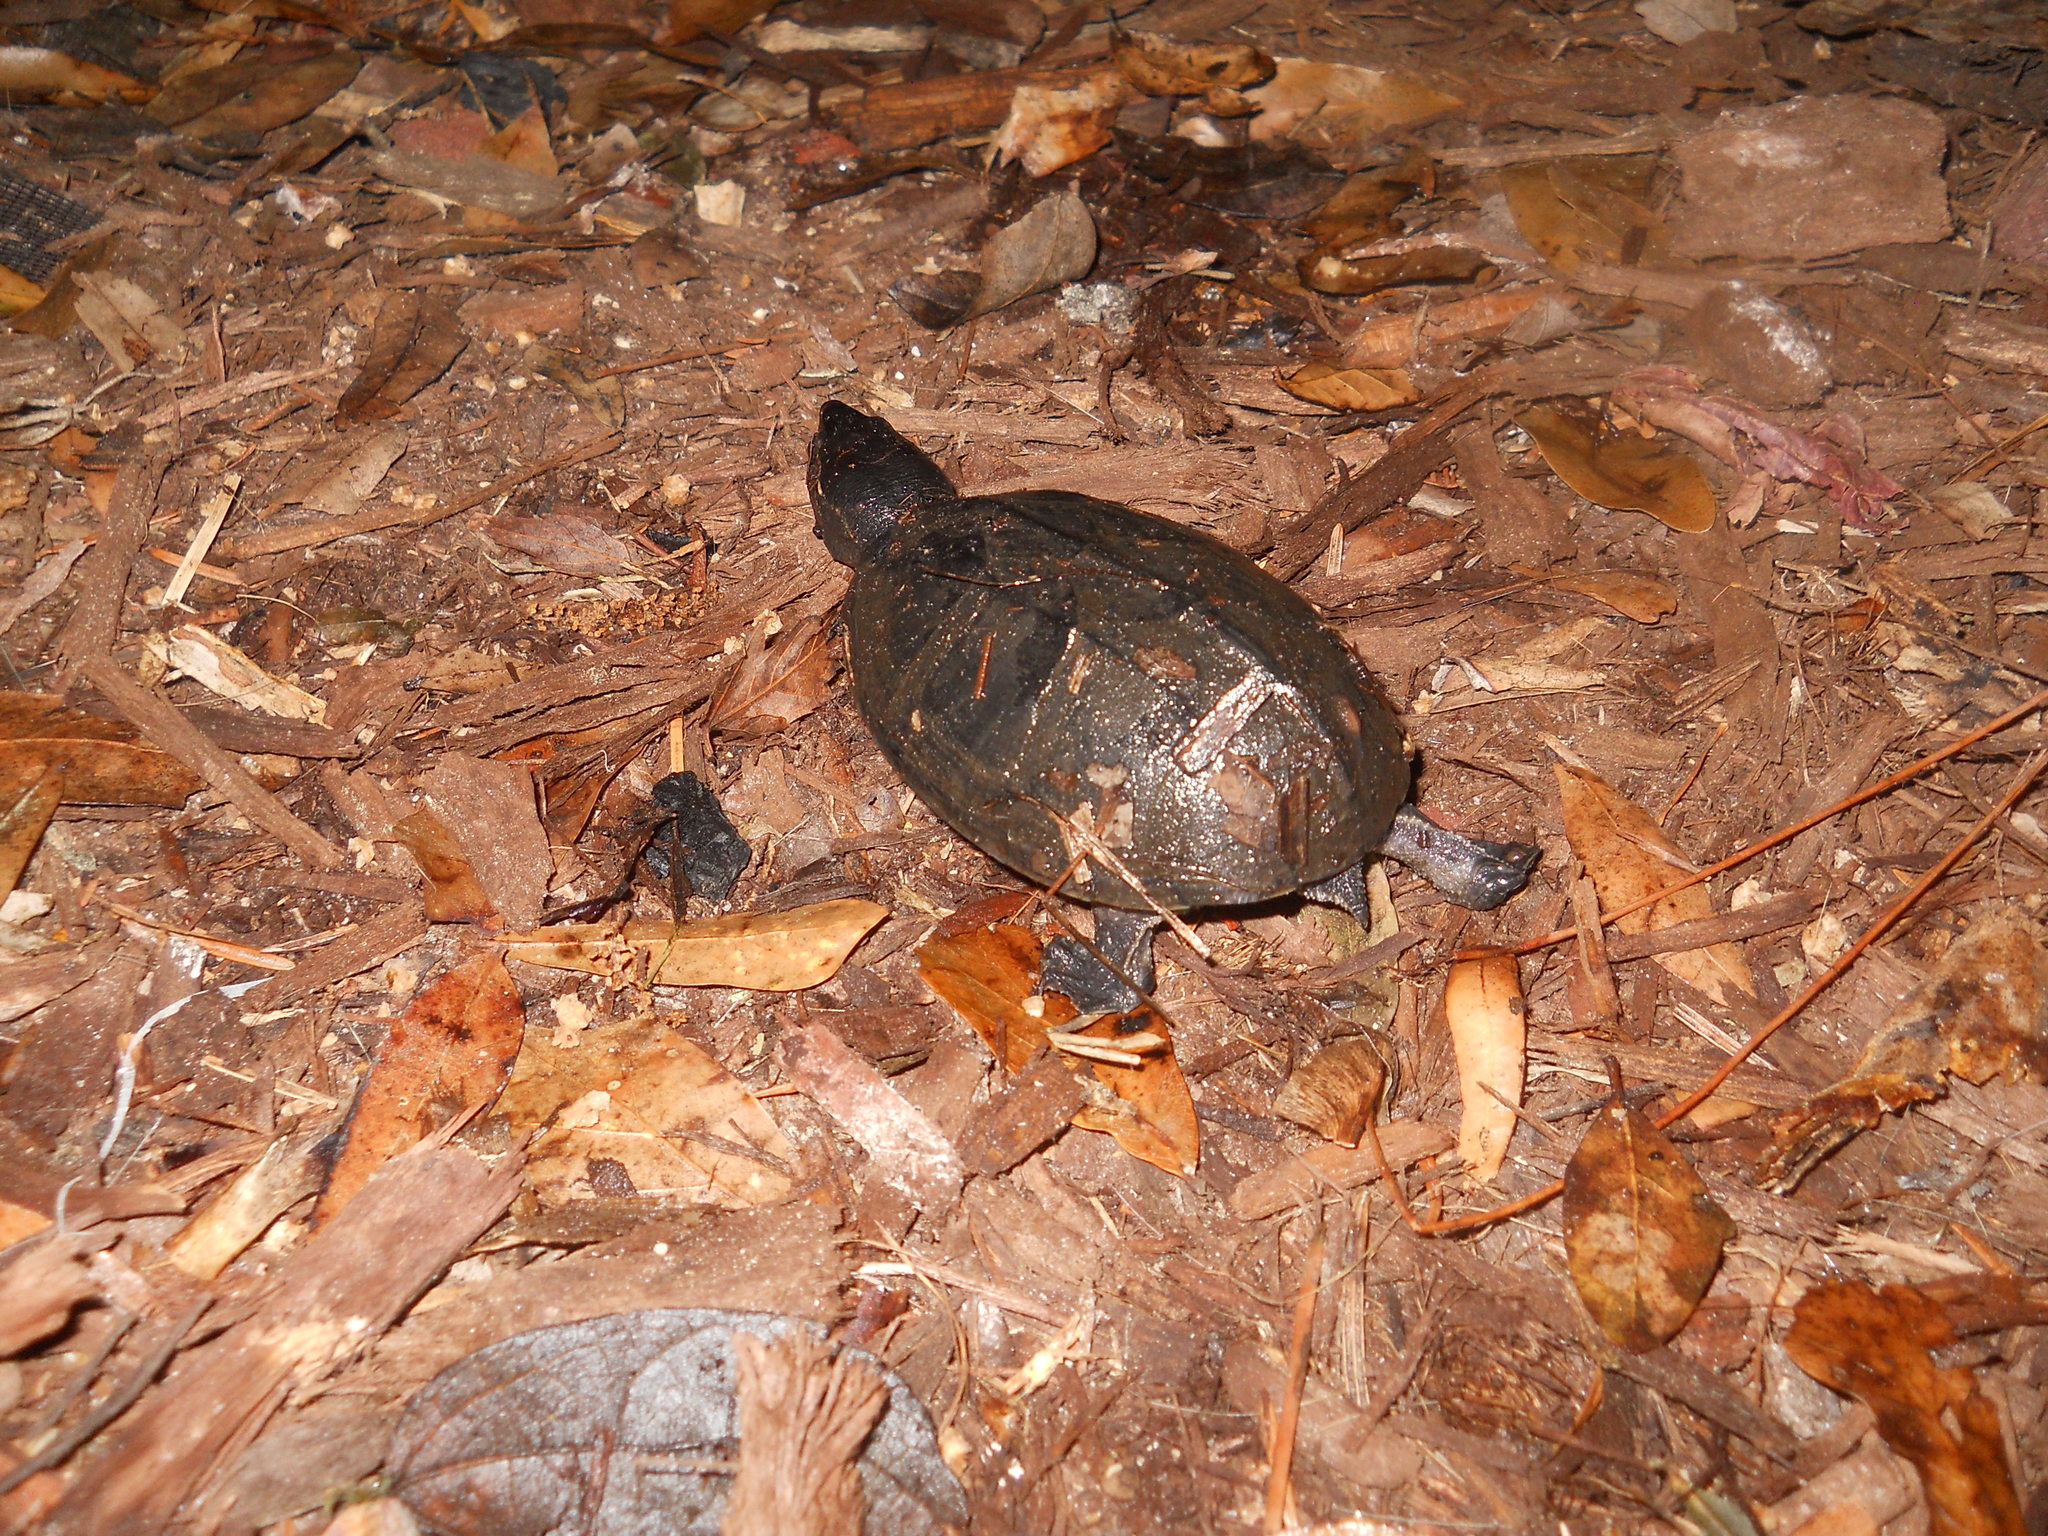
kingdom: Animalia
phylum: Chordata
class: Testudines
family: Kinosternidae
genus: Sternotherus
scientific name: Sternotherus odoratus
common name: Common musk turtle
